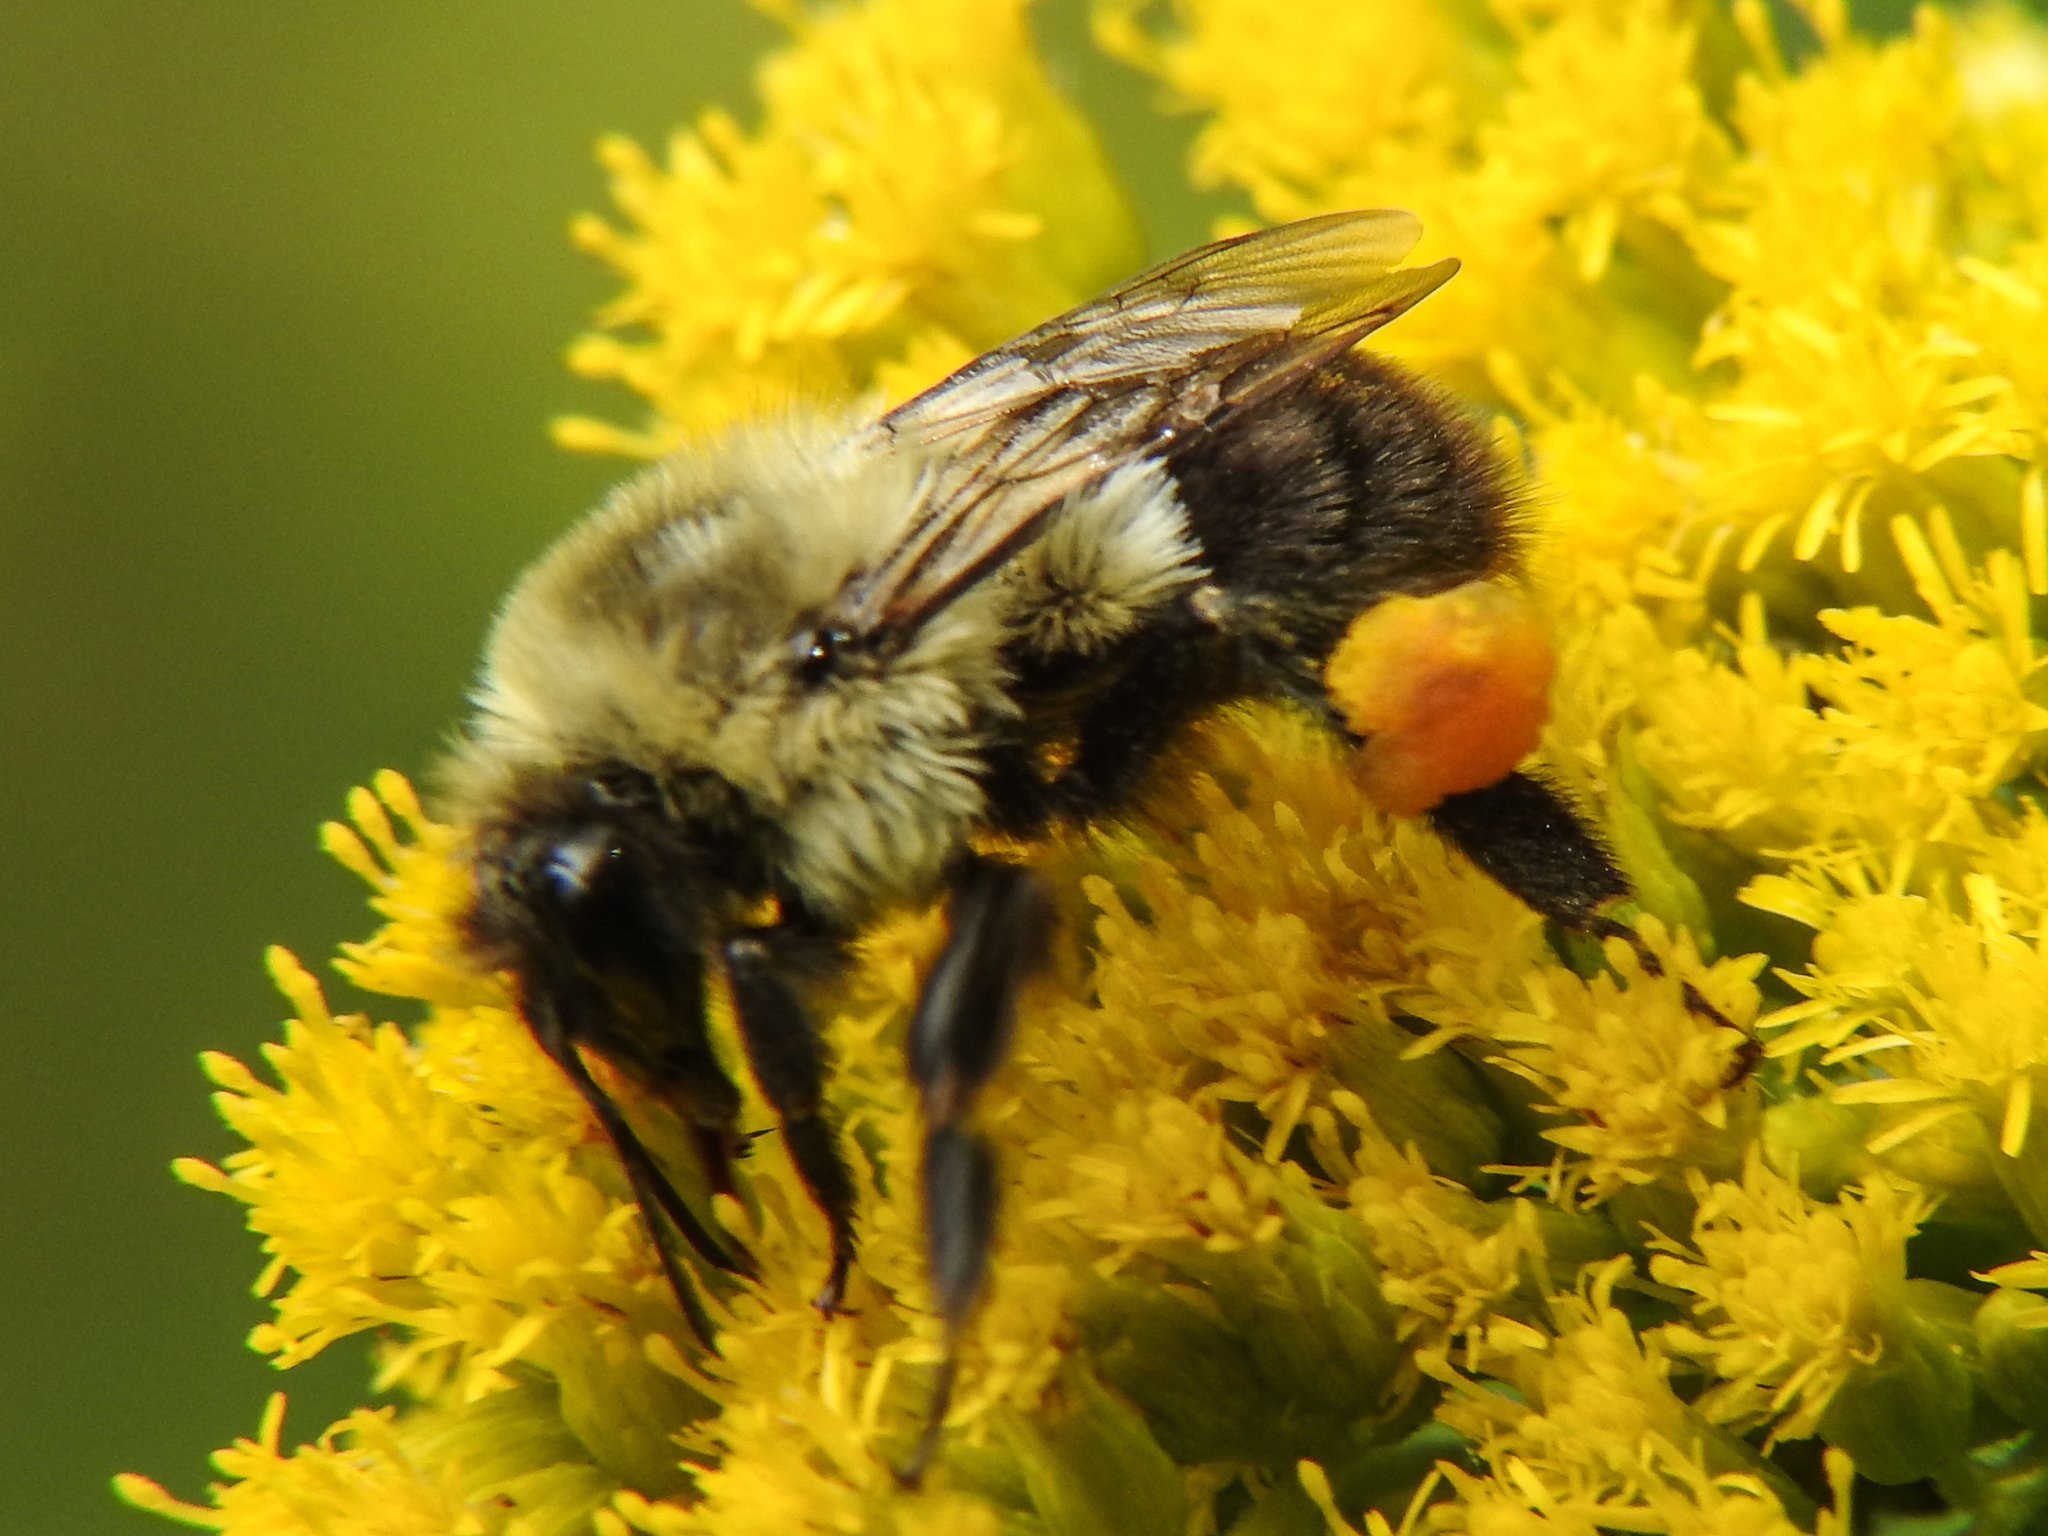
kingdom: Animalia
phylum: Arthropoda
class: Insecta
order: Hymenoptera
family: Apidae
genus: Bombus
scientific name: Bombus impatiens
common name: Common eastern bumble bee
